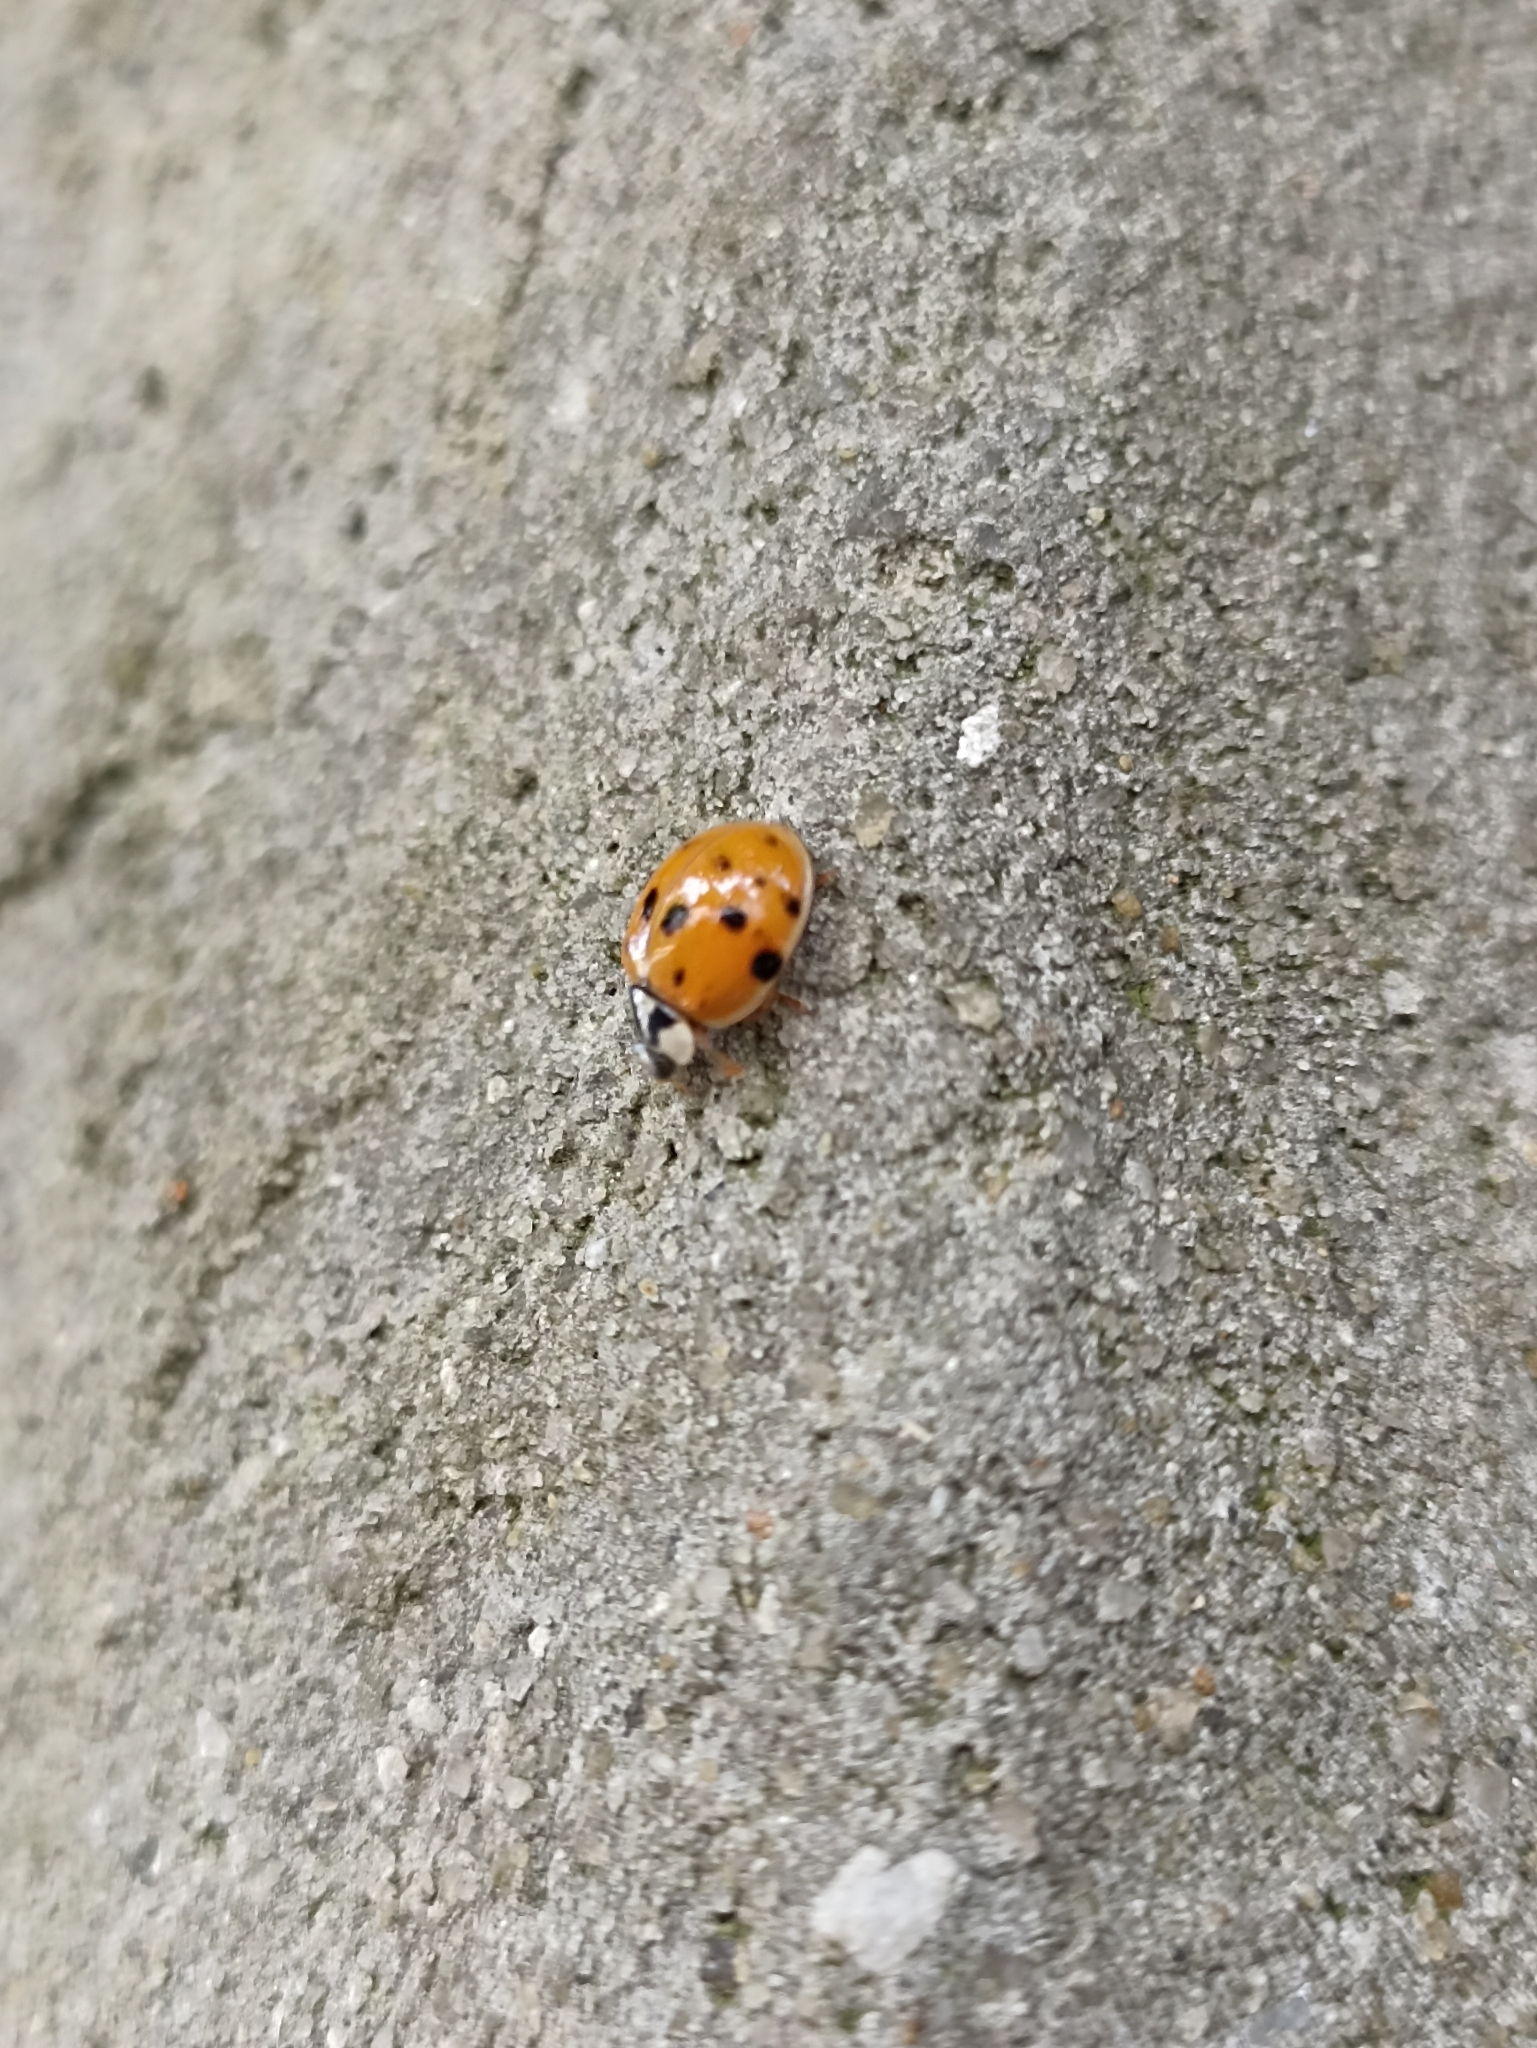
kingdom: Animalia
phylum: Arthropoda
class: Insecta
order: Coleoptera
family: Coccinellidae
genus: Harmonia
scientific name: Harmonia axyridis
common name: Harlequin ladybird
